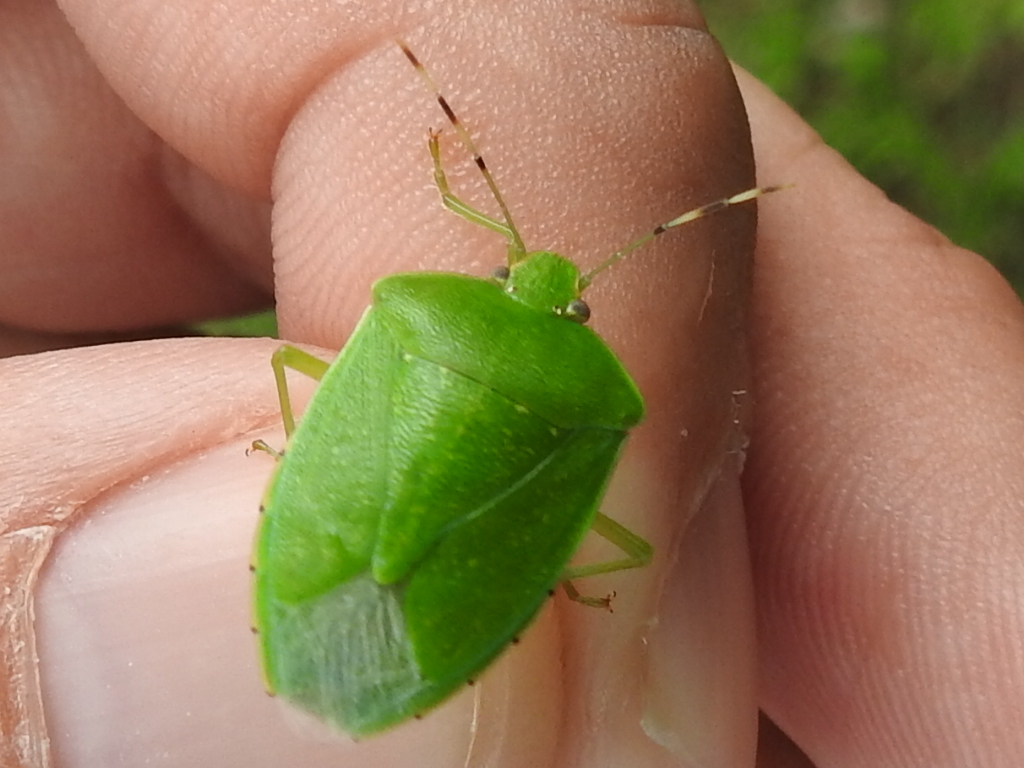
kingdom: Animalia
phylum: Arthropoda
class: Insecta
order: Hemiptera
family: Pentatomidae
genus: Chinavia
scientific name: Chinavia hilaris
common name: Green stink bug
